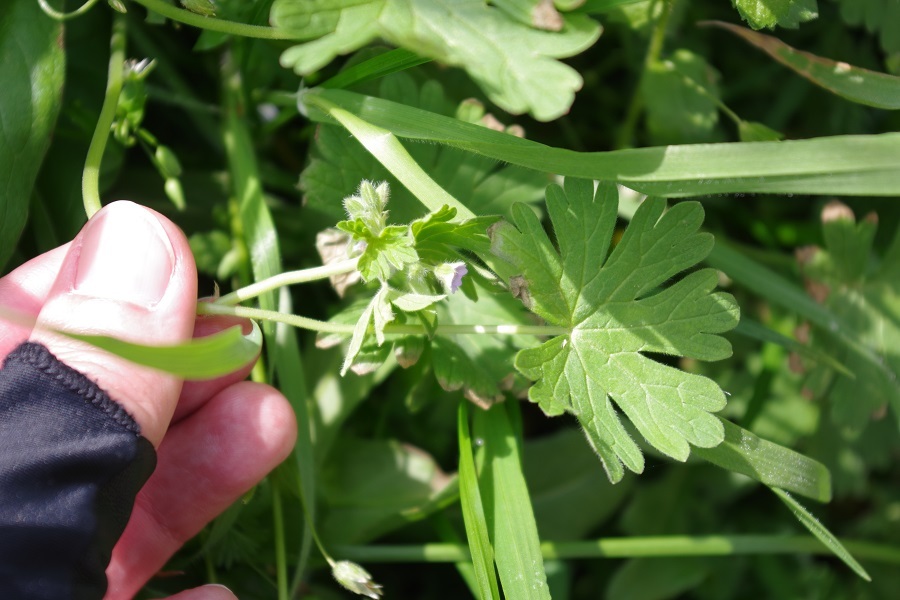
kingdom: Plantae
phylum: Tracheophyta
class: Magnoliopsida
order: Geraniales
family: Geraniaceae
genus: Geranium
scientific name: Geranium pusillum
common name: Small geranium
